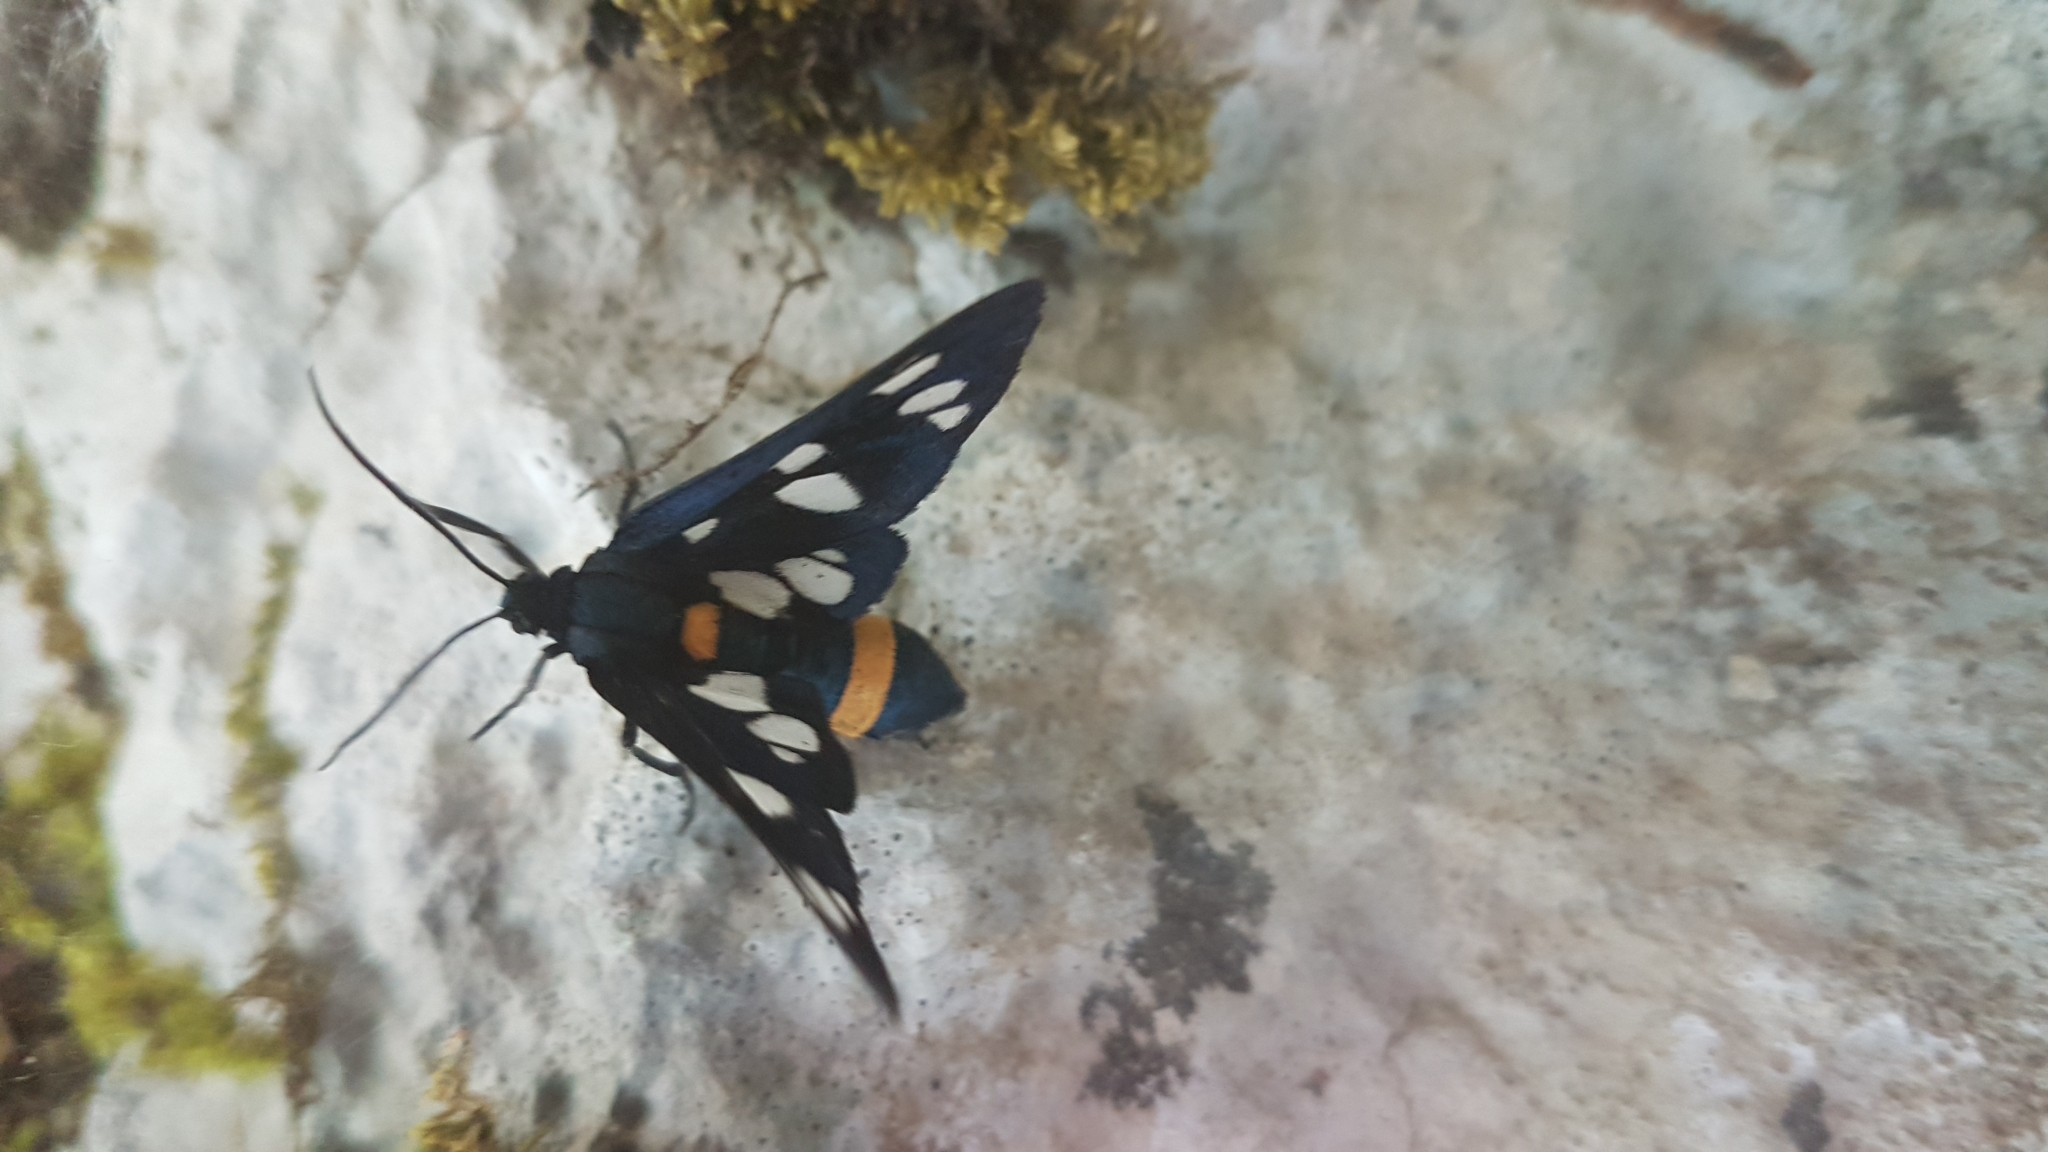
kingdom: Animalia
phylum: Arthropoda
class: Insecta
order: Lepidoptera
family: Erebidae
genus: Amata
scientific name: Amata phegea
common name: Nine-spotted
